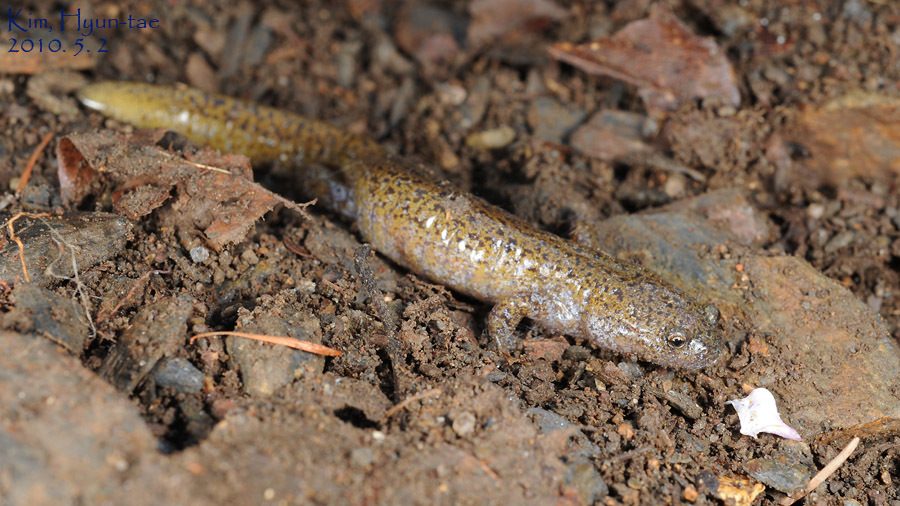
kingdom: Animalia
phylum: Chordata
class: Amphibia
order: Caudata
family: Hynobiidae
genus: Hynobius
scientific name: Hynobius leechii
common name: Gensan salamander
